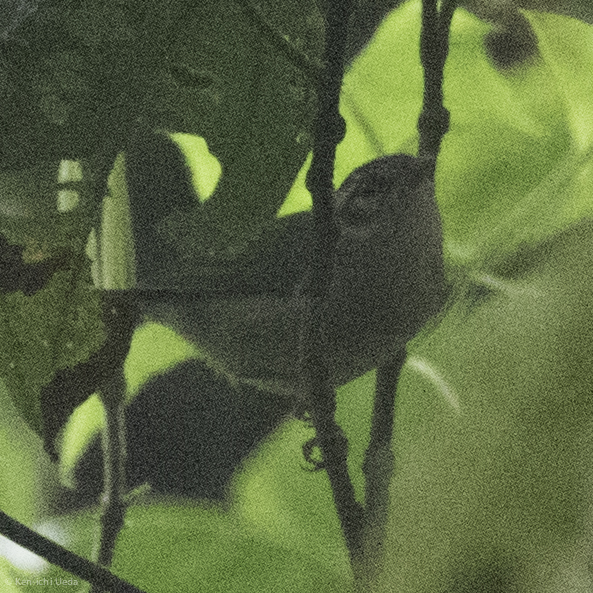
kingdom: Animalia
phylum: Chordata
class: Aves
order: Passeriformes
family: Parulidae
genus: Basileuterus
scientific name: Basileuterus melanotis
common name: Black-eared warbler
